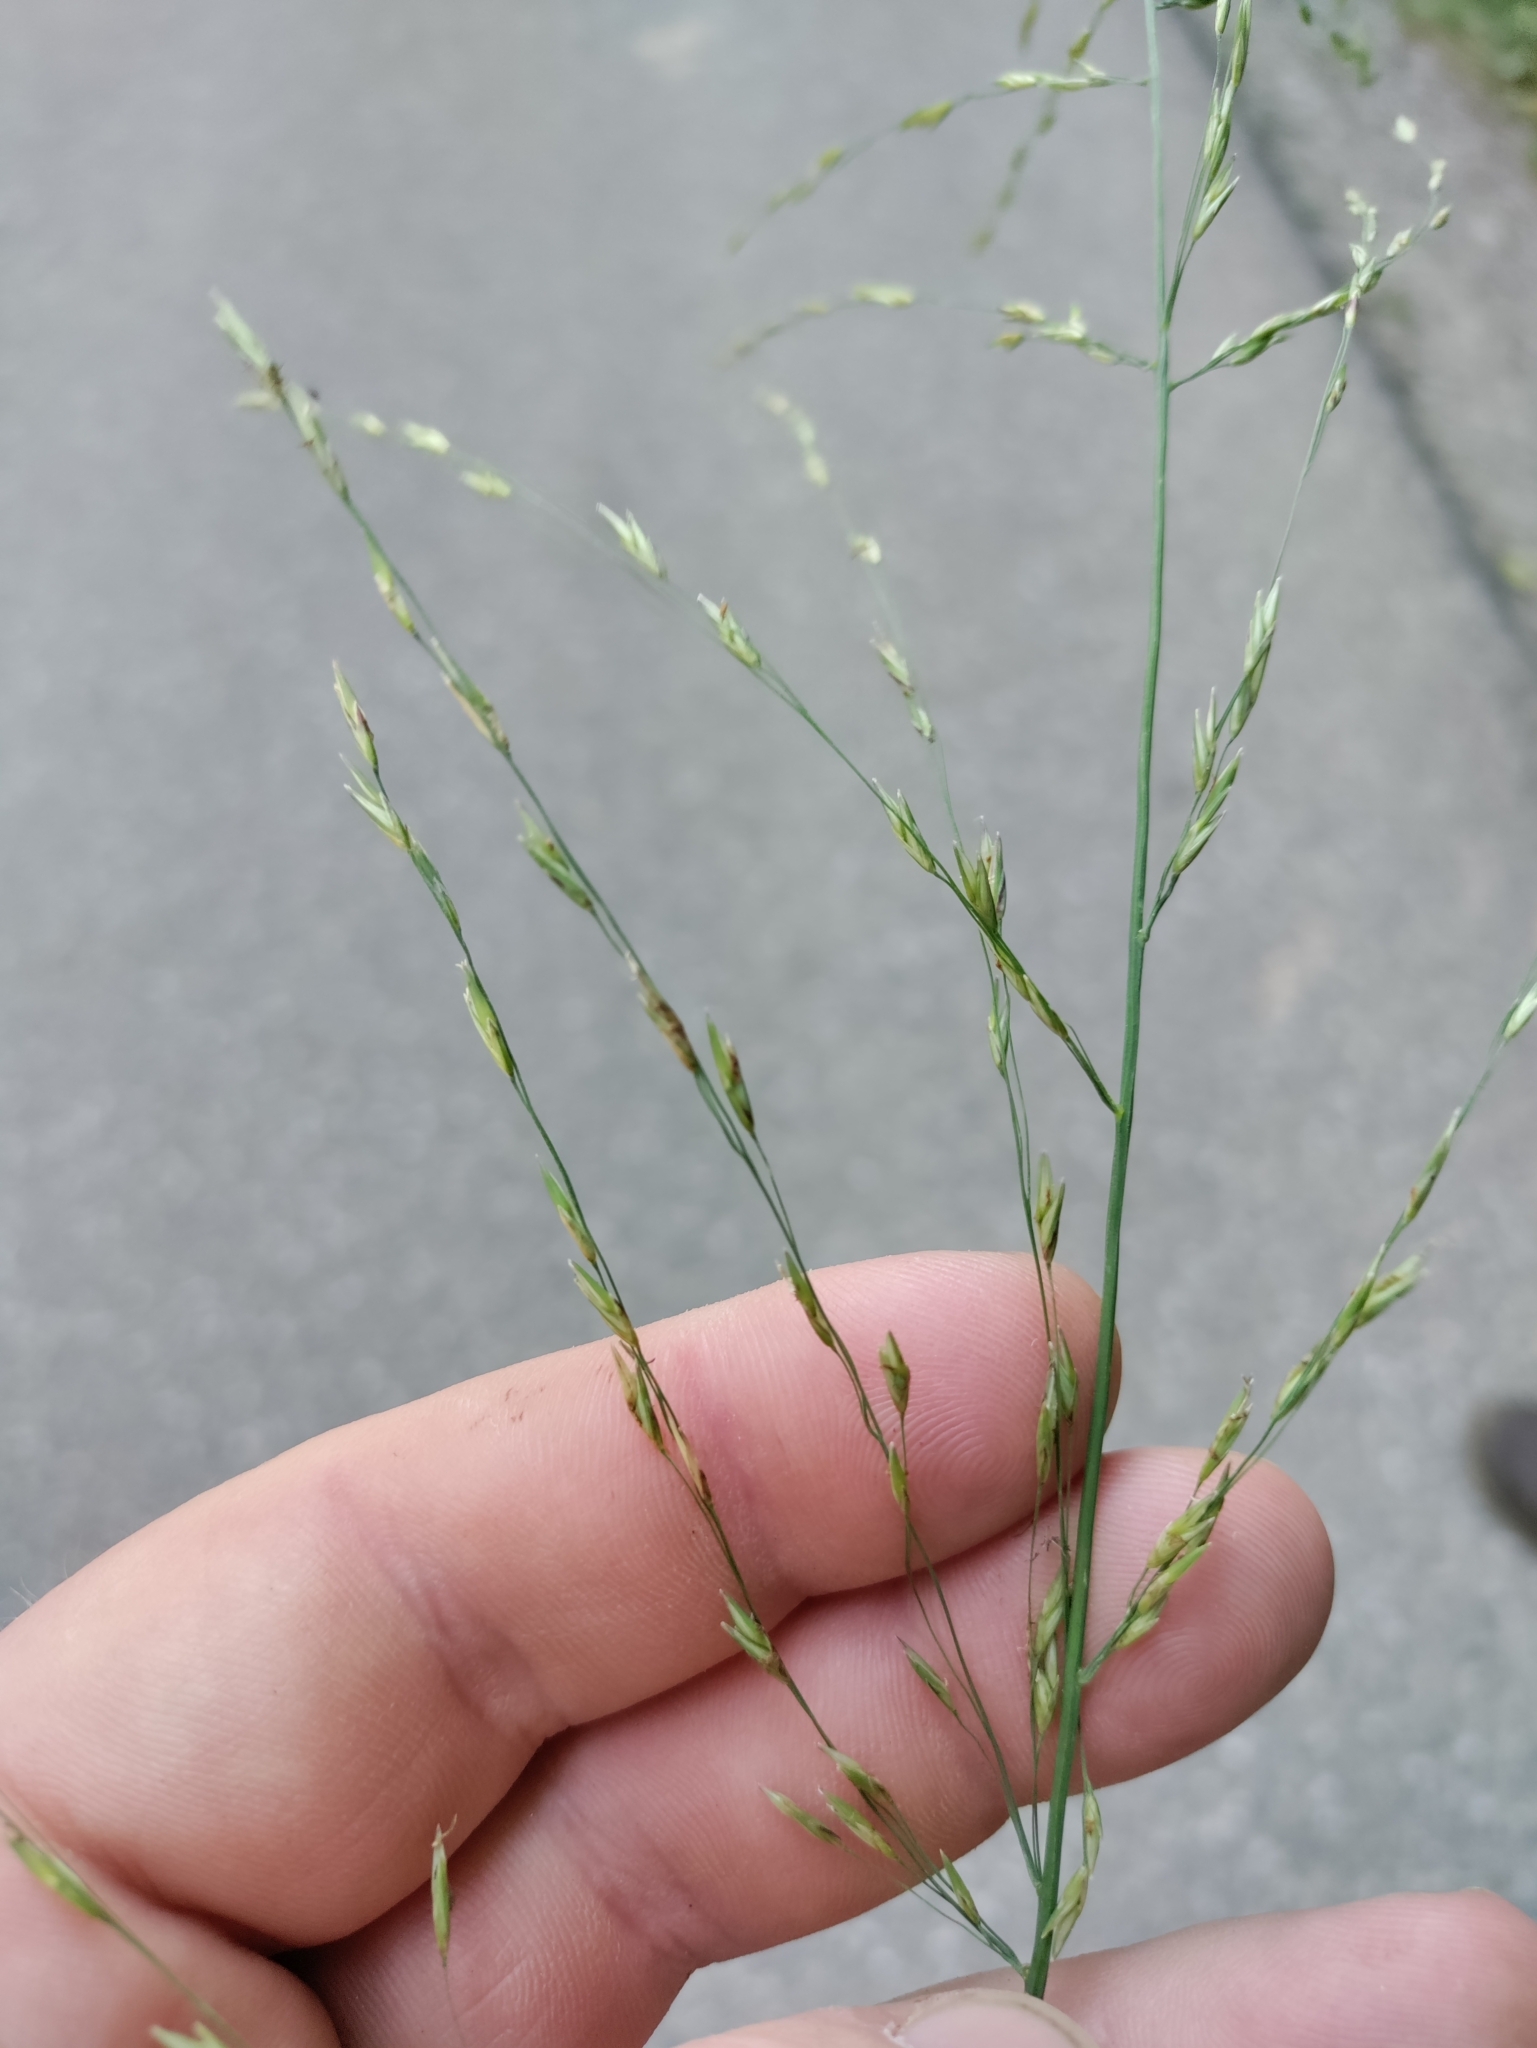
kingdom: Plantae
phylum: Tracheophyta
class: Liliopsida
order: Poales
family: Poaceae
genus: Molinia
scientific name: Molinia caerulea
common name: Purple moor-grass
